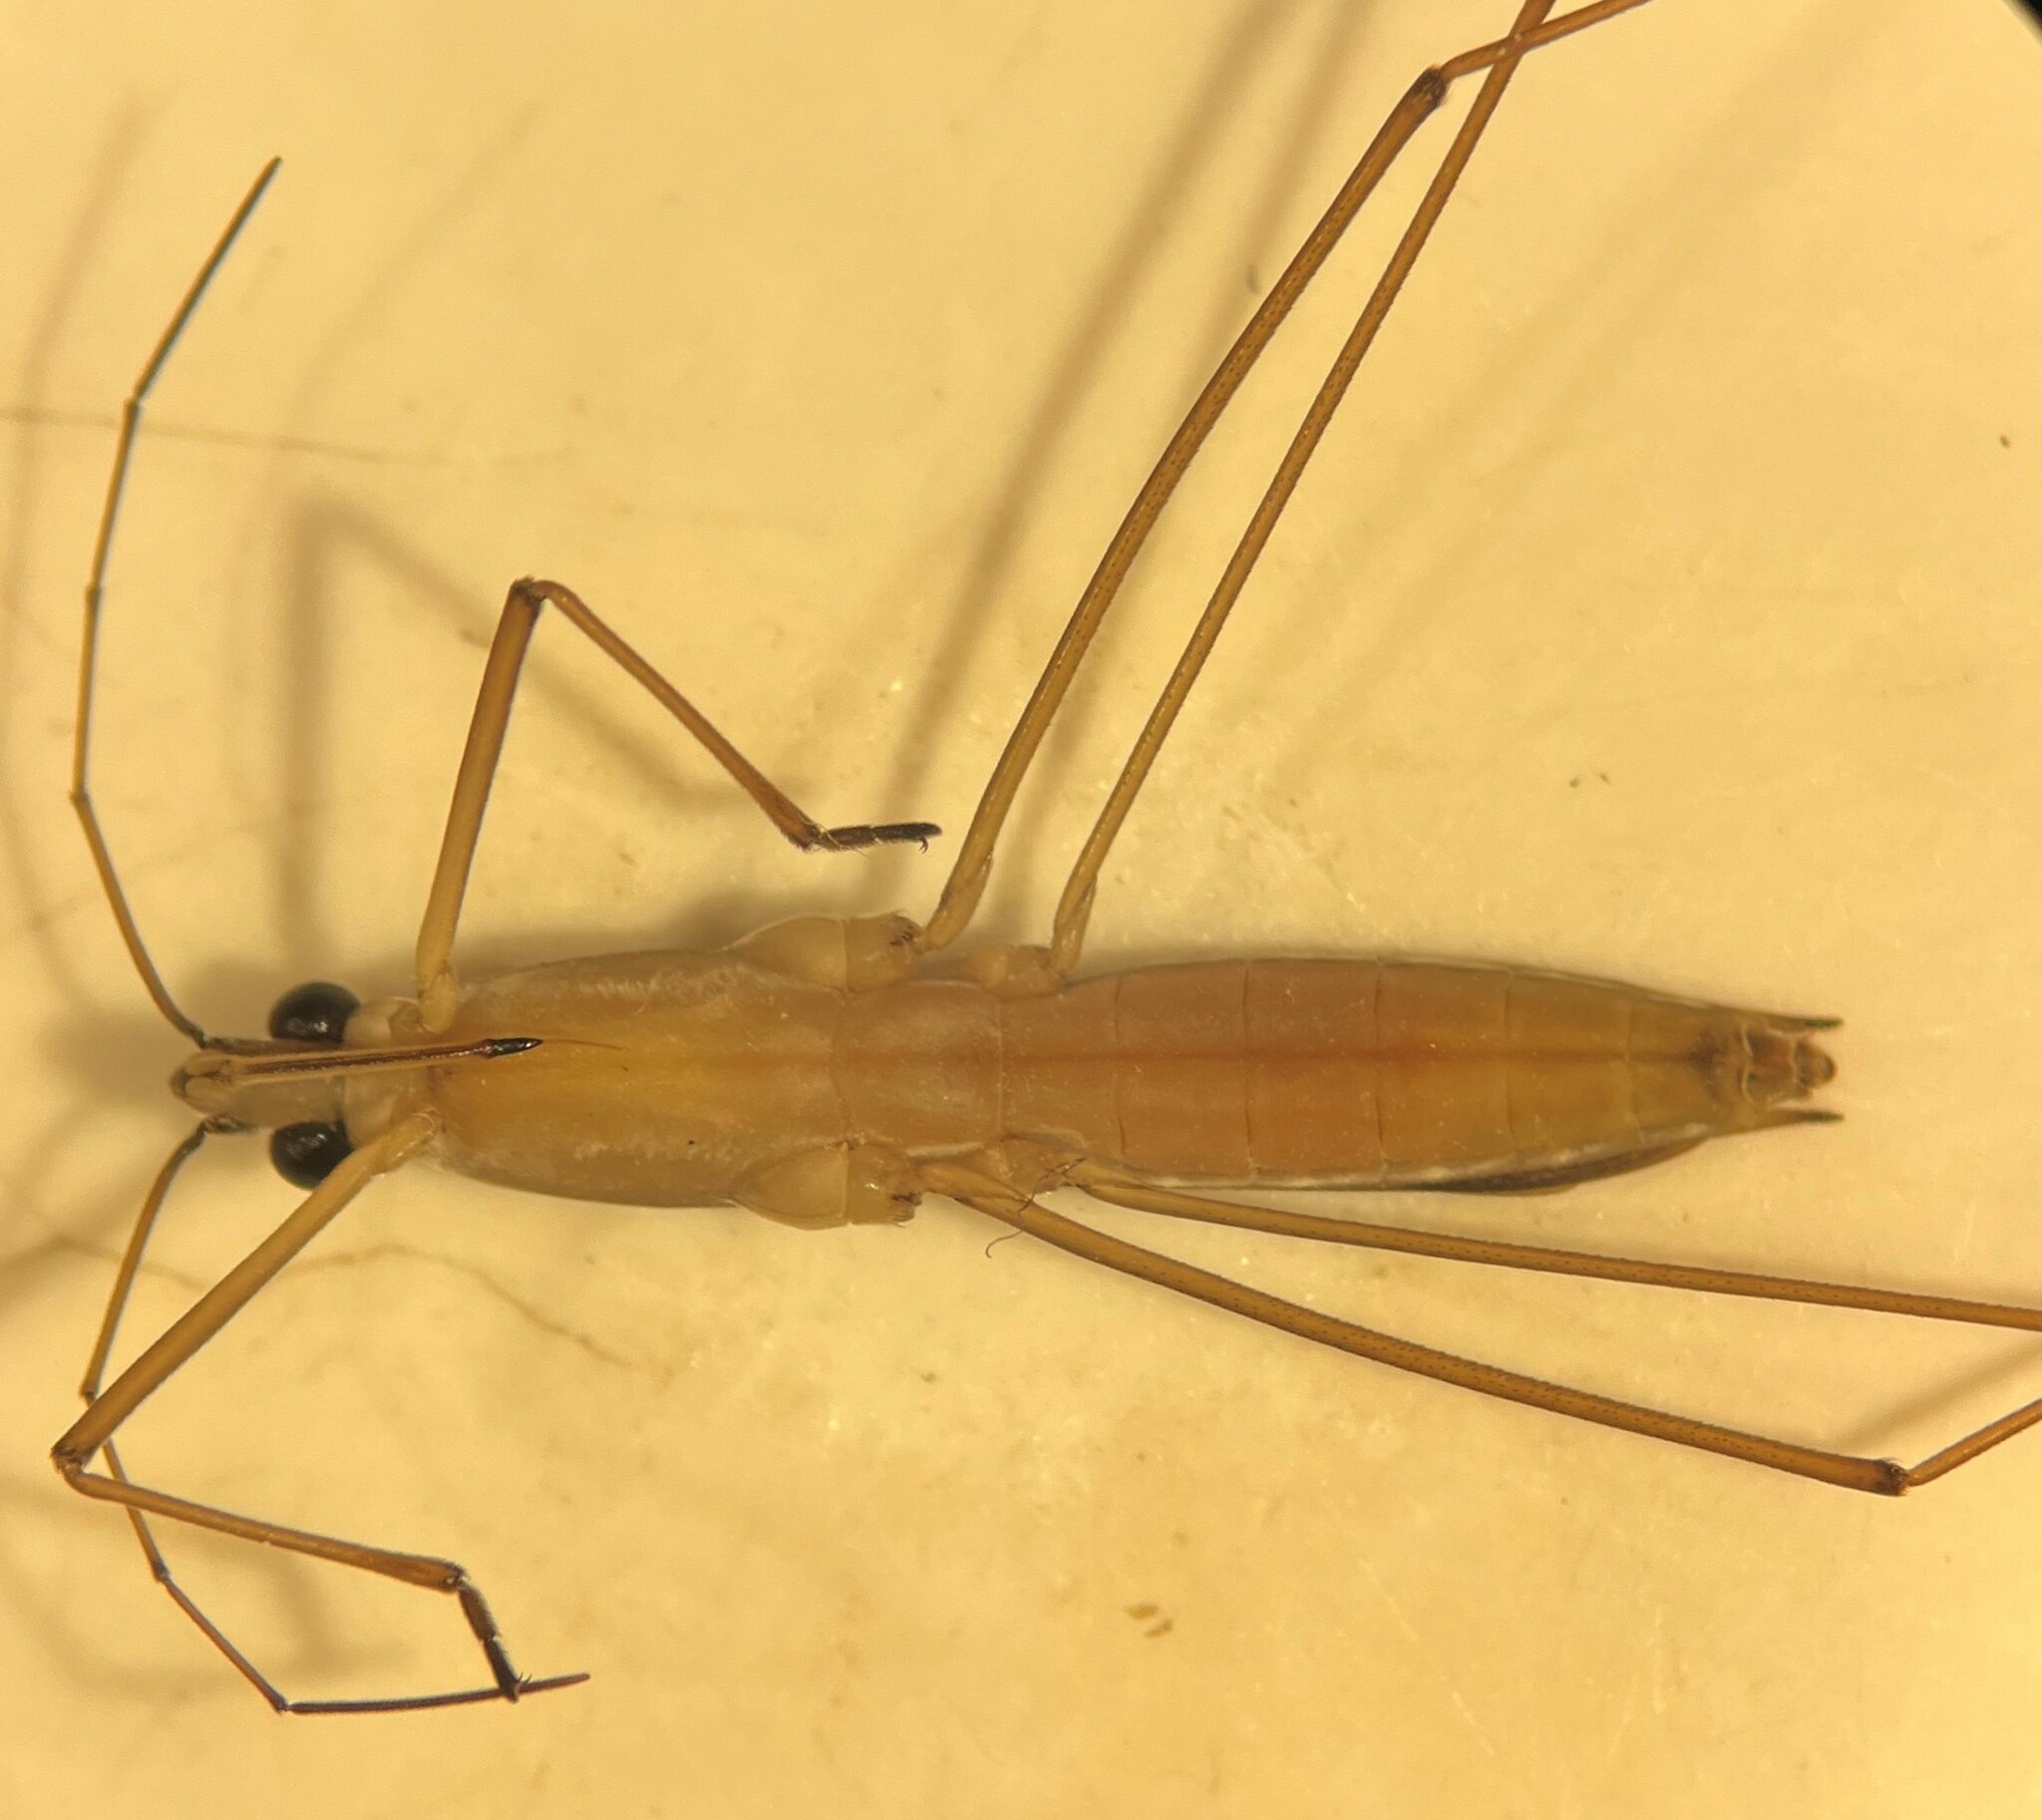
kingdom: Animalia
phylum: Arthropoda
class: Insecta
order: Hemiptera
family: Gerridae
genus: Limnoporus
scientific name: Limnoporus canaliculatus
